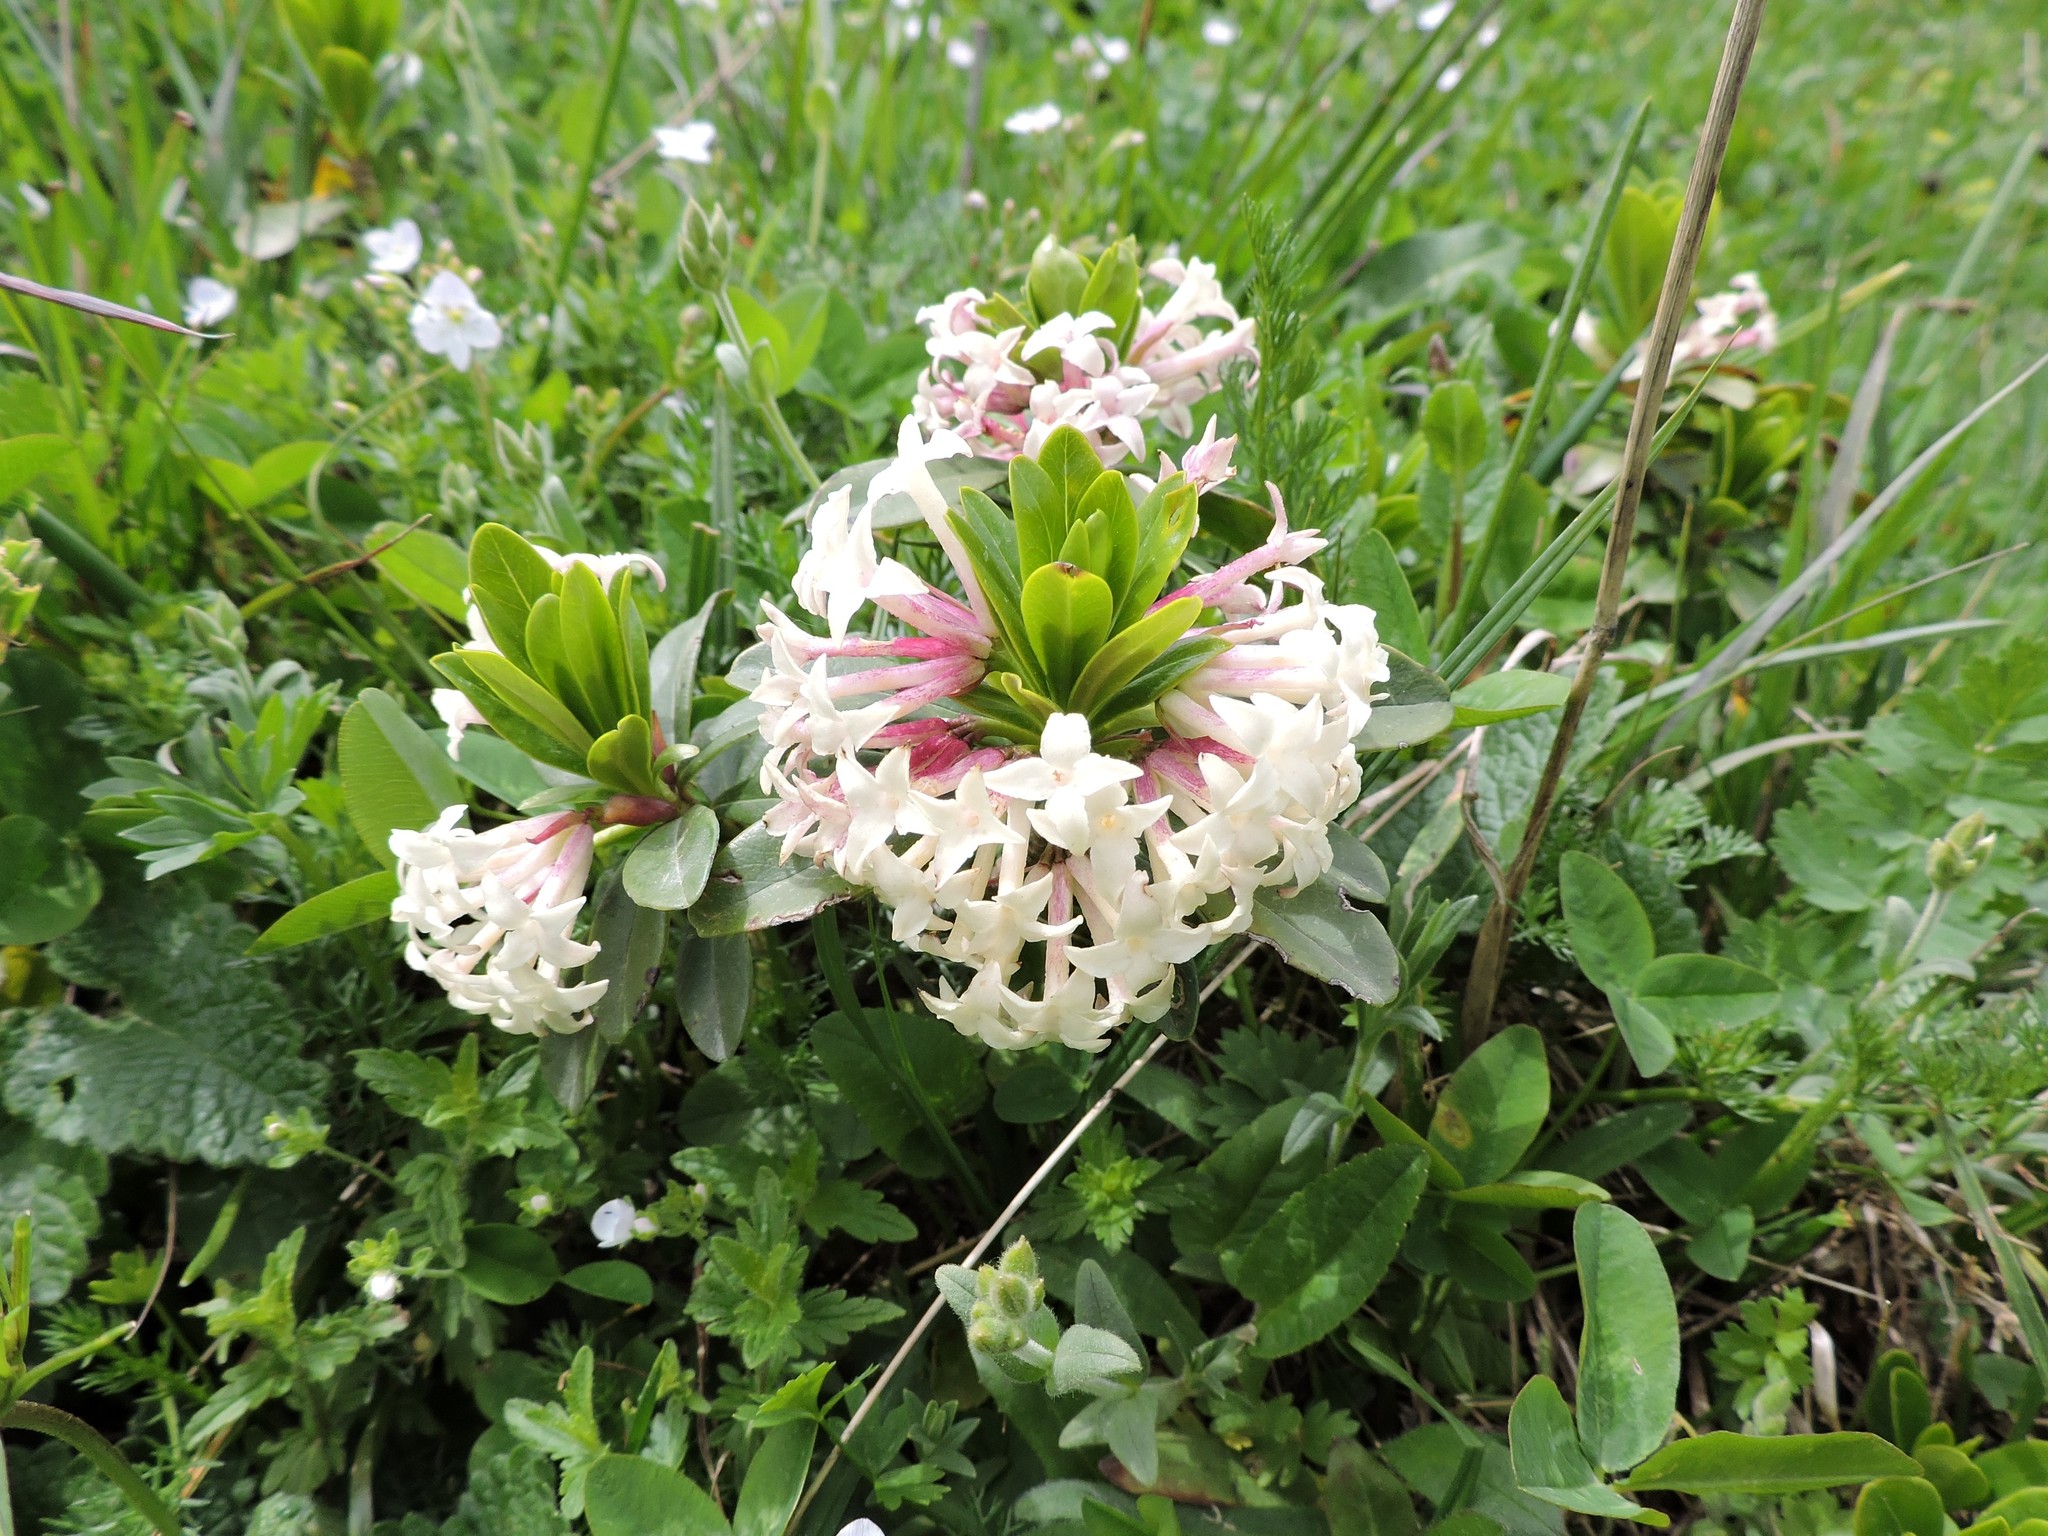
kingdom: Plantae
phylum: Tracheophyta
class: Magnoliopsida
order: Malvales
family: Thymelaeaceae
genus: Daphne
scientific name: Daphne glomerata
